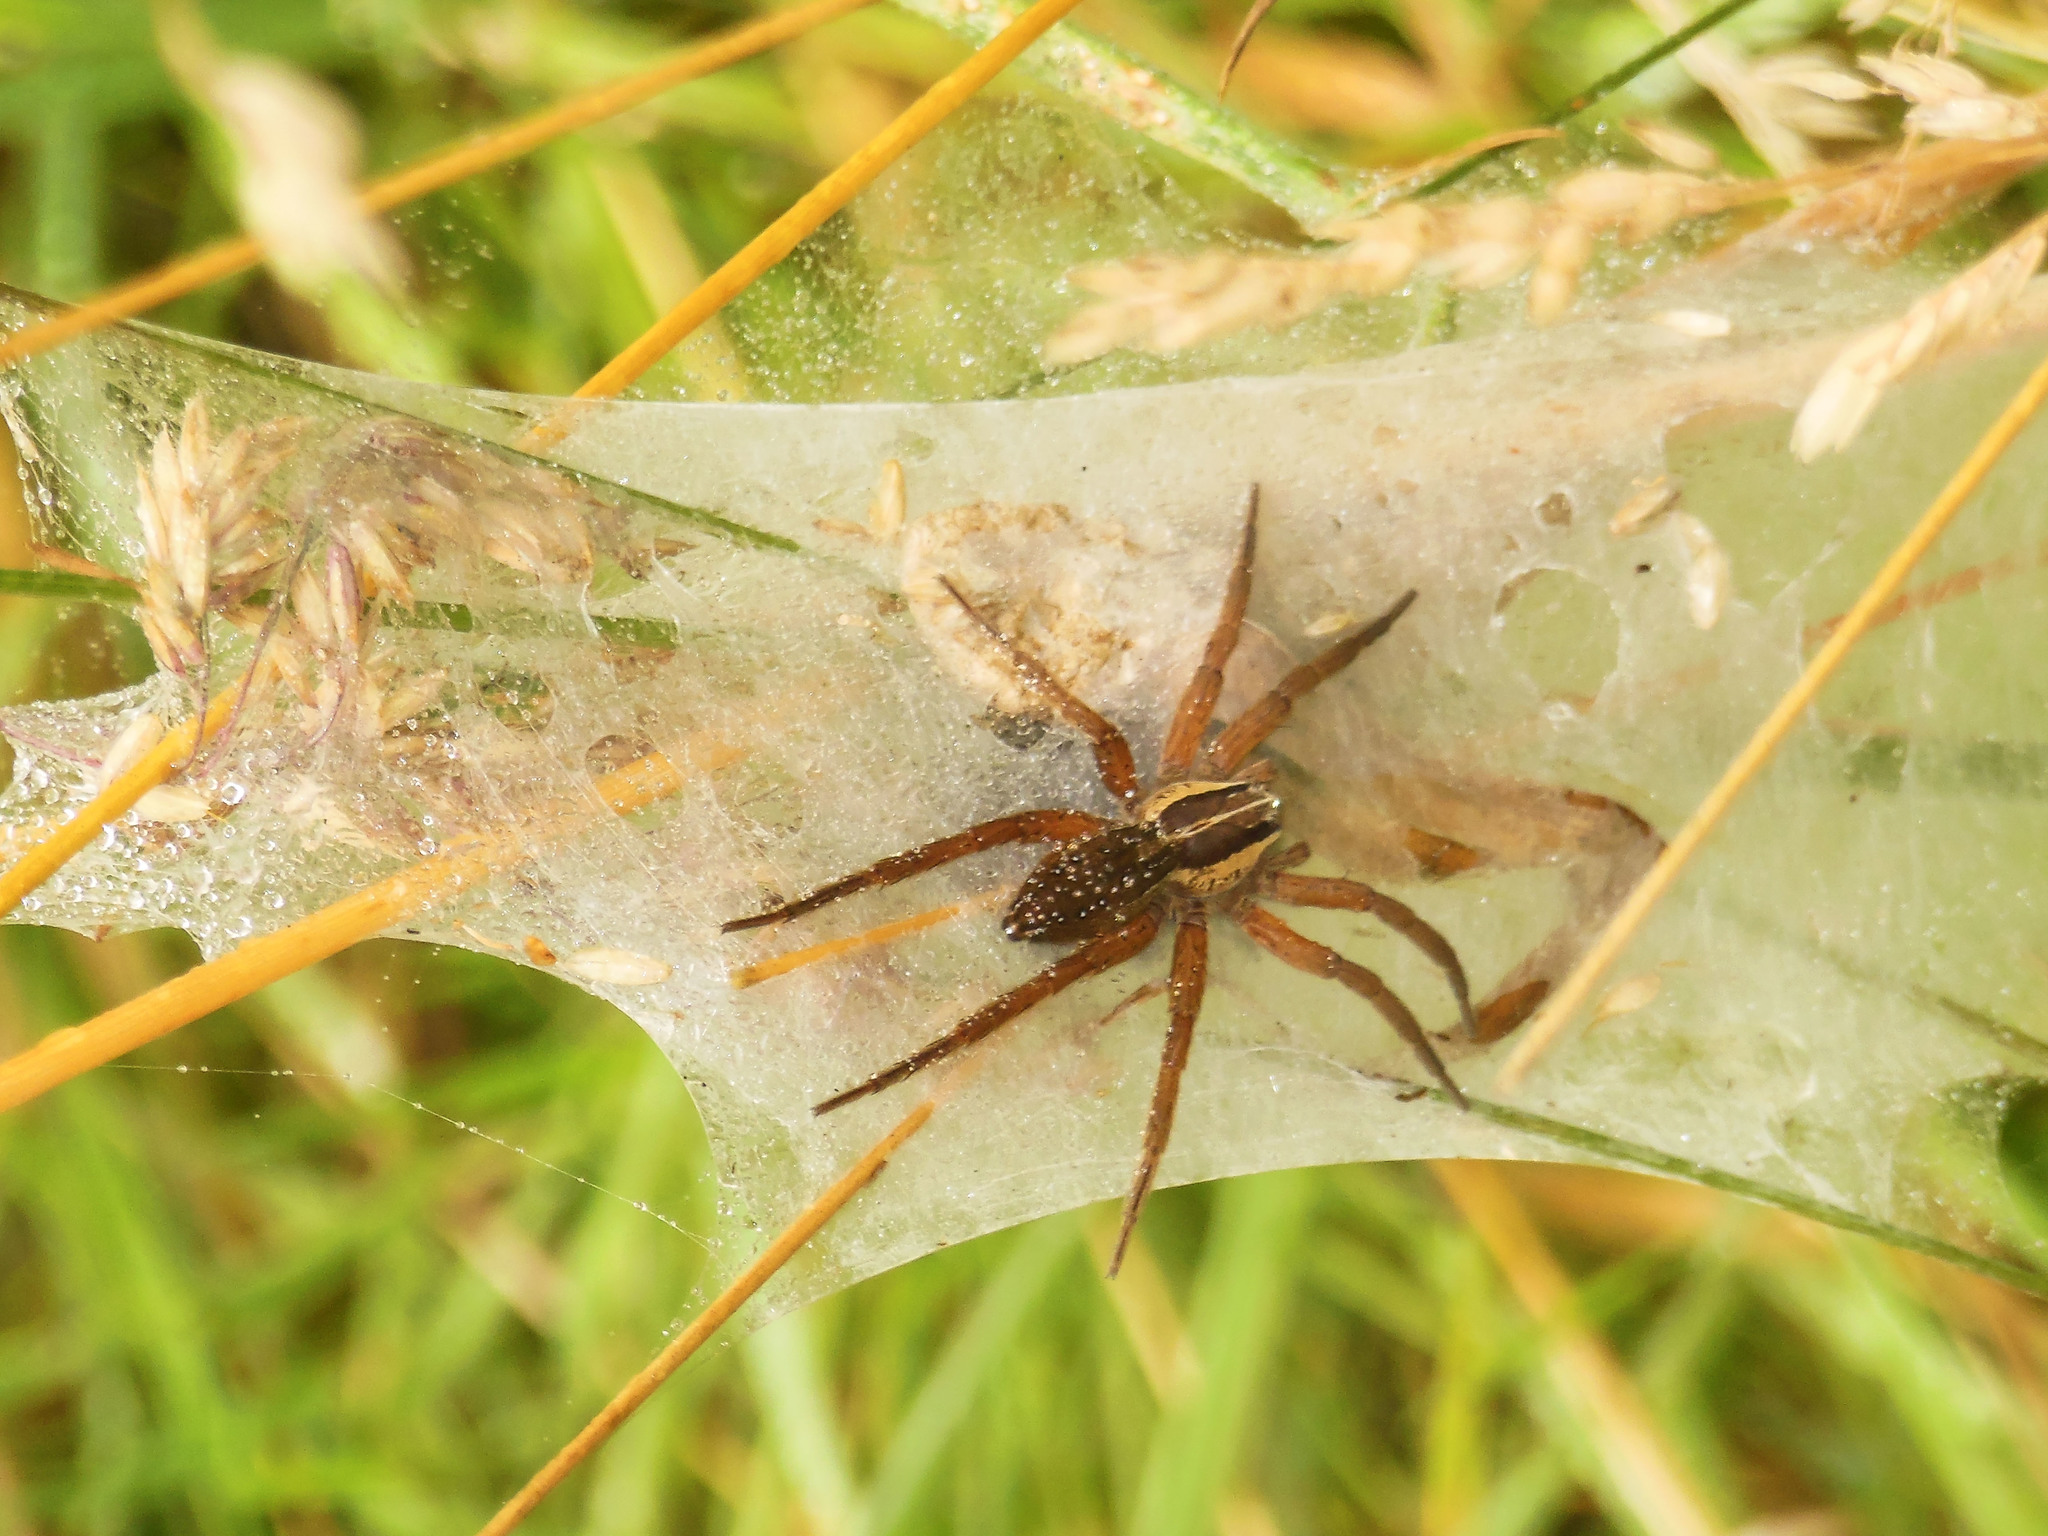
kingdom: Animalia
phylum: Arthropoda
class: Arachnida
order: Araneae
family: Pisauridae
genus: Dolomedes
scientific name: Dolomedes minor
